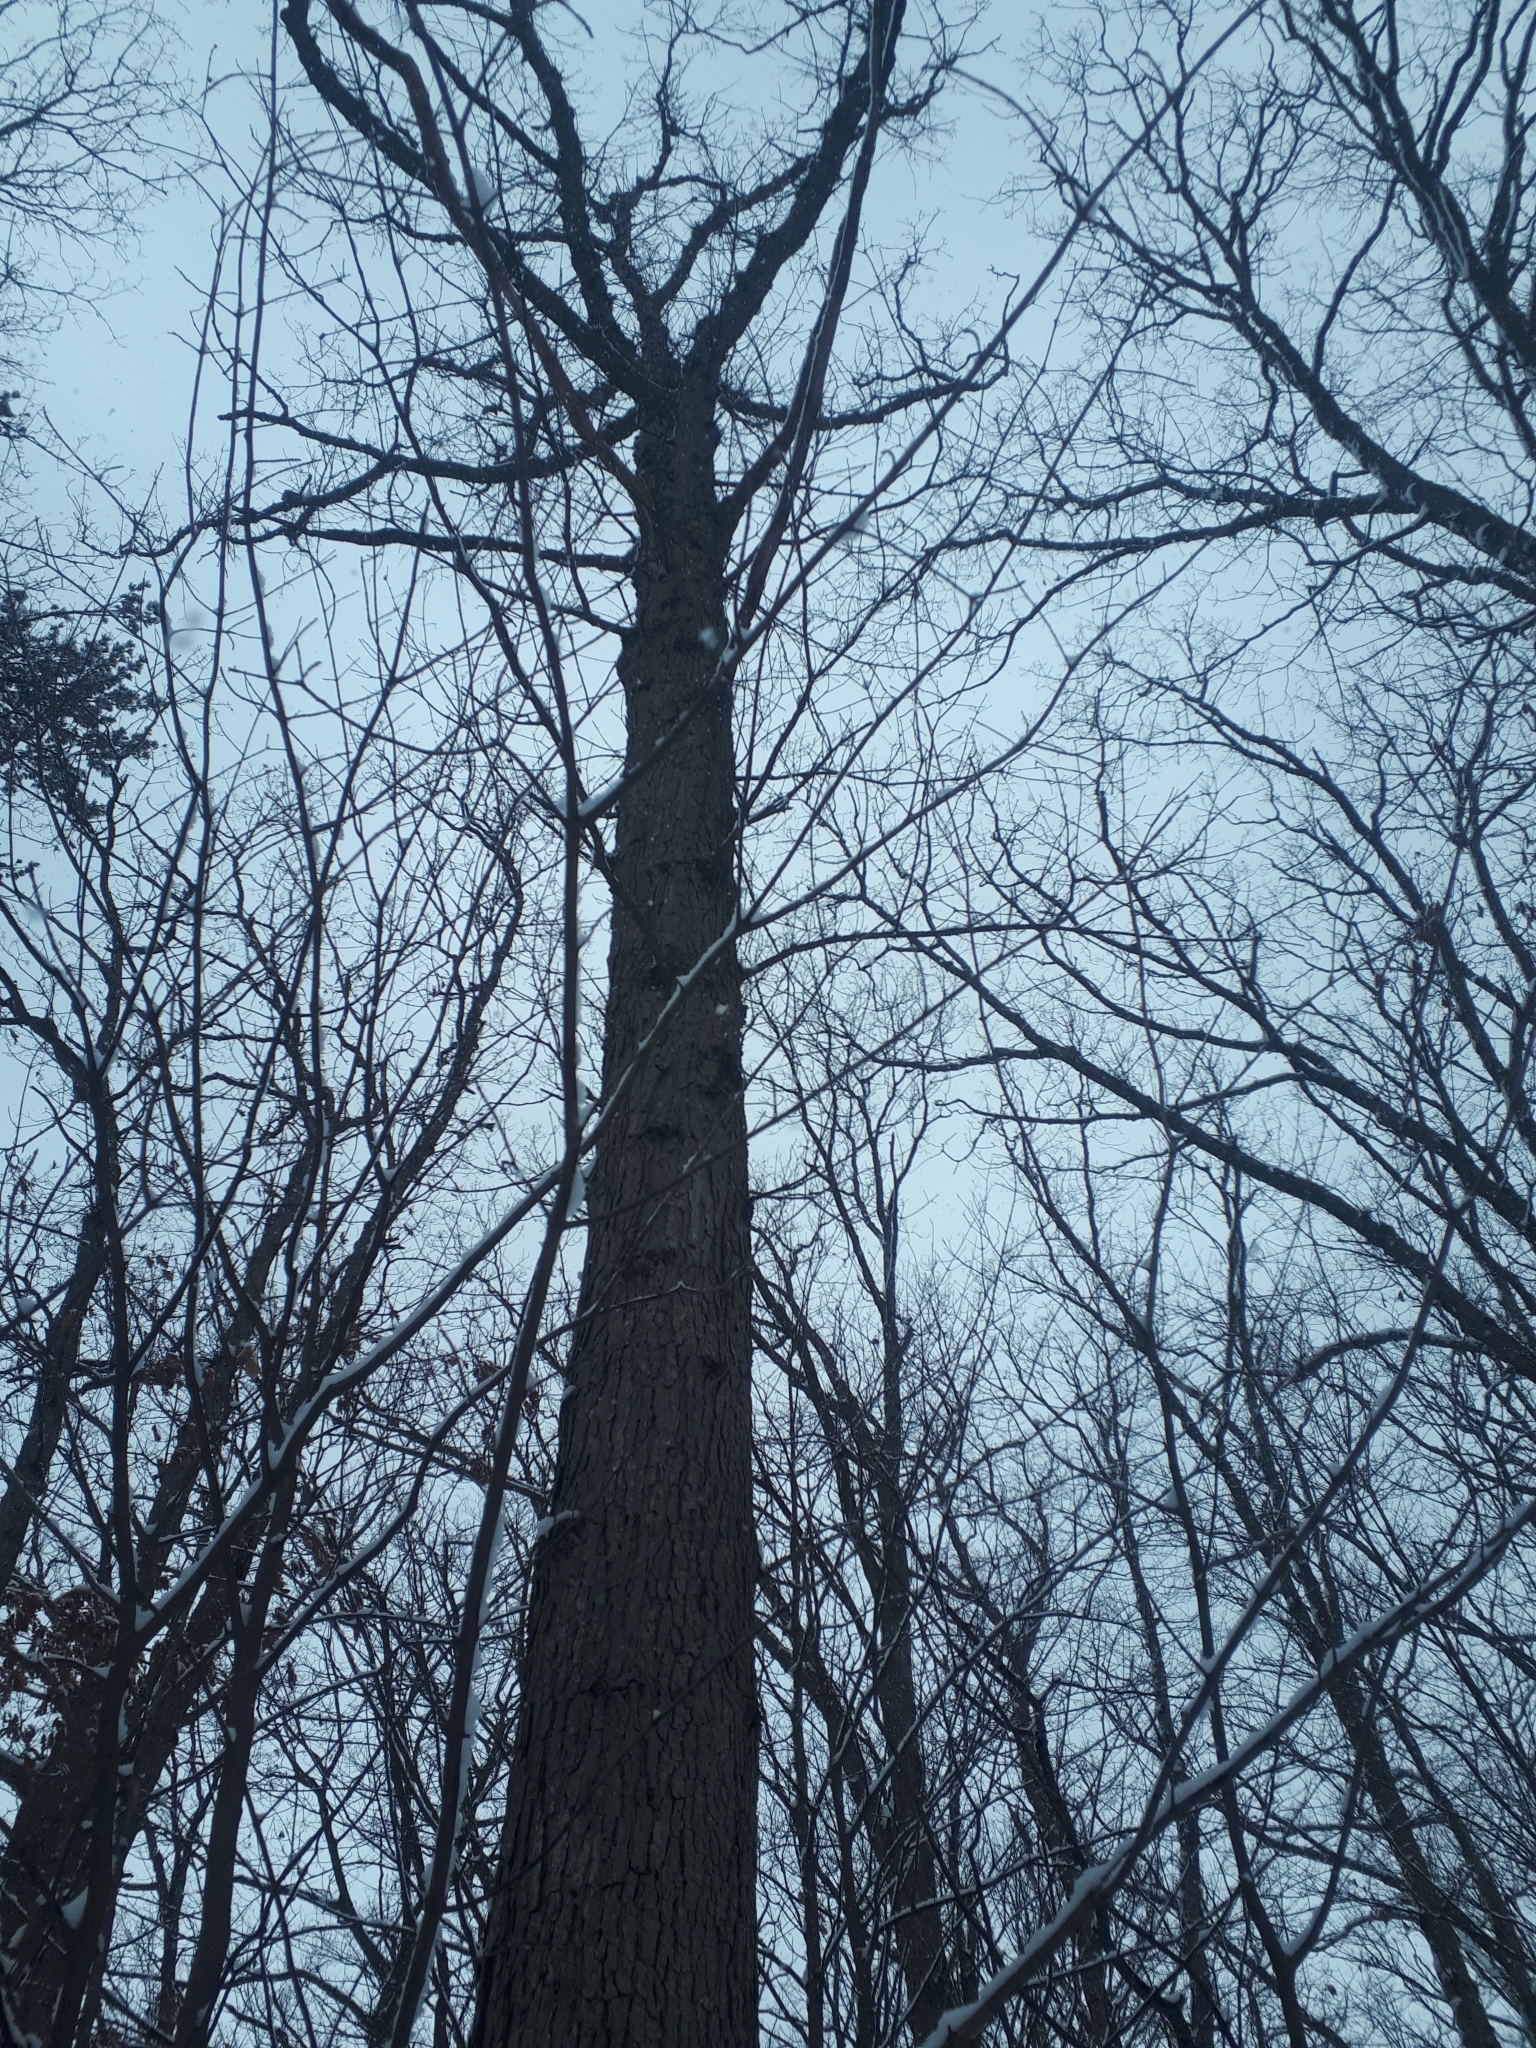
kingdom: Plantae
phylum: Tracheophyta
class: Magnoliopsida
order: Fagales
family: Fagaceae
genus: Quercus
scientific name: Quercus alba
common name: White oak
